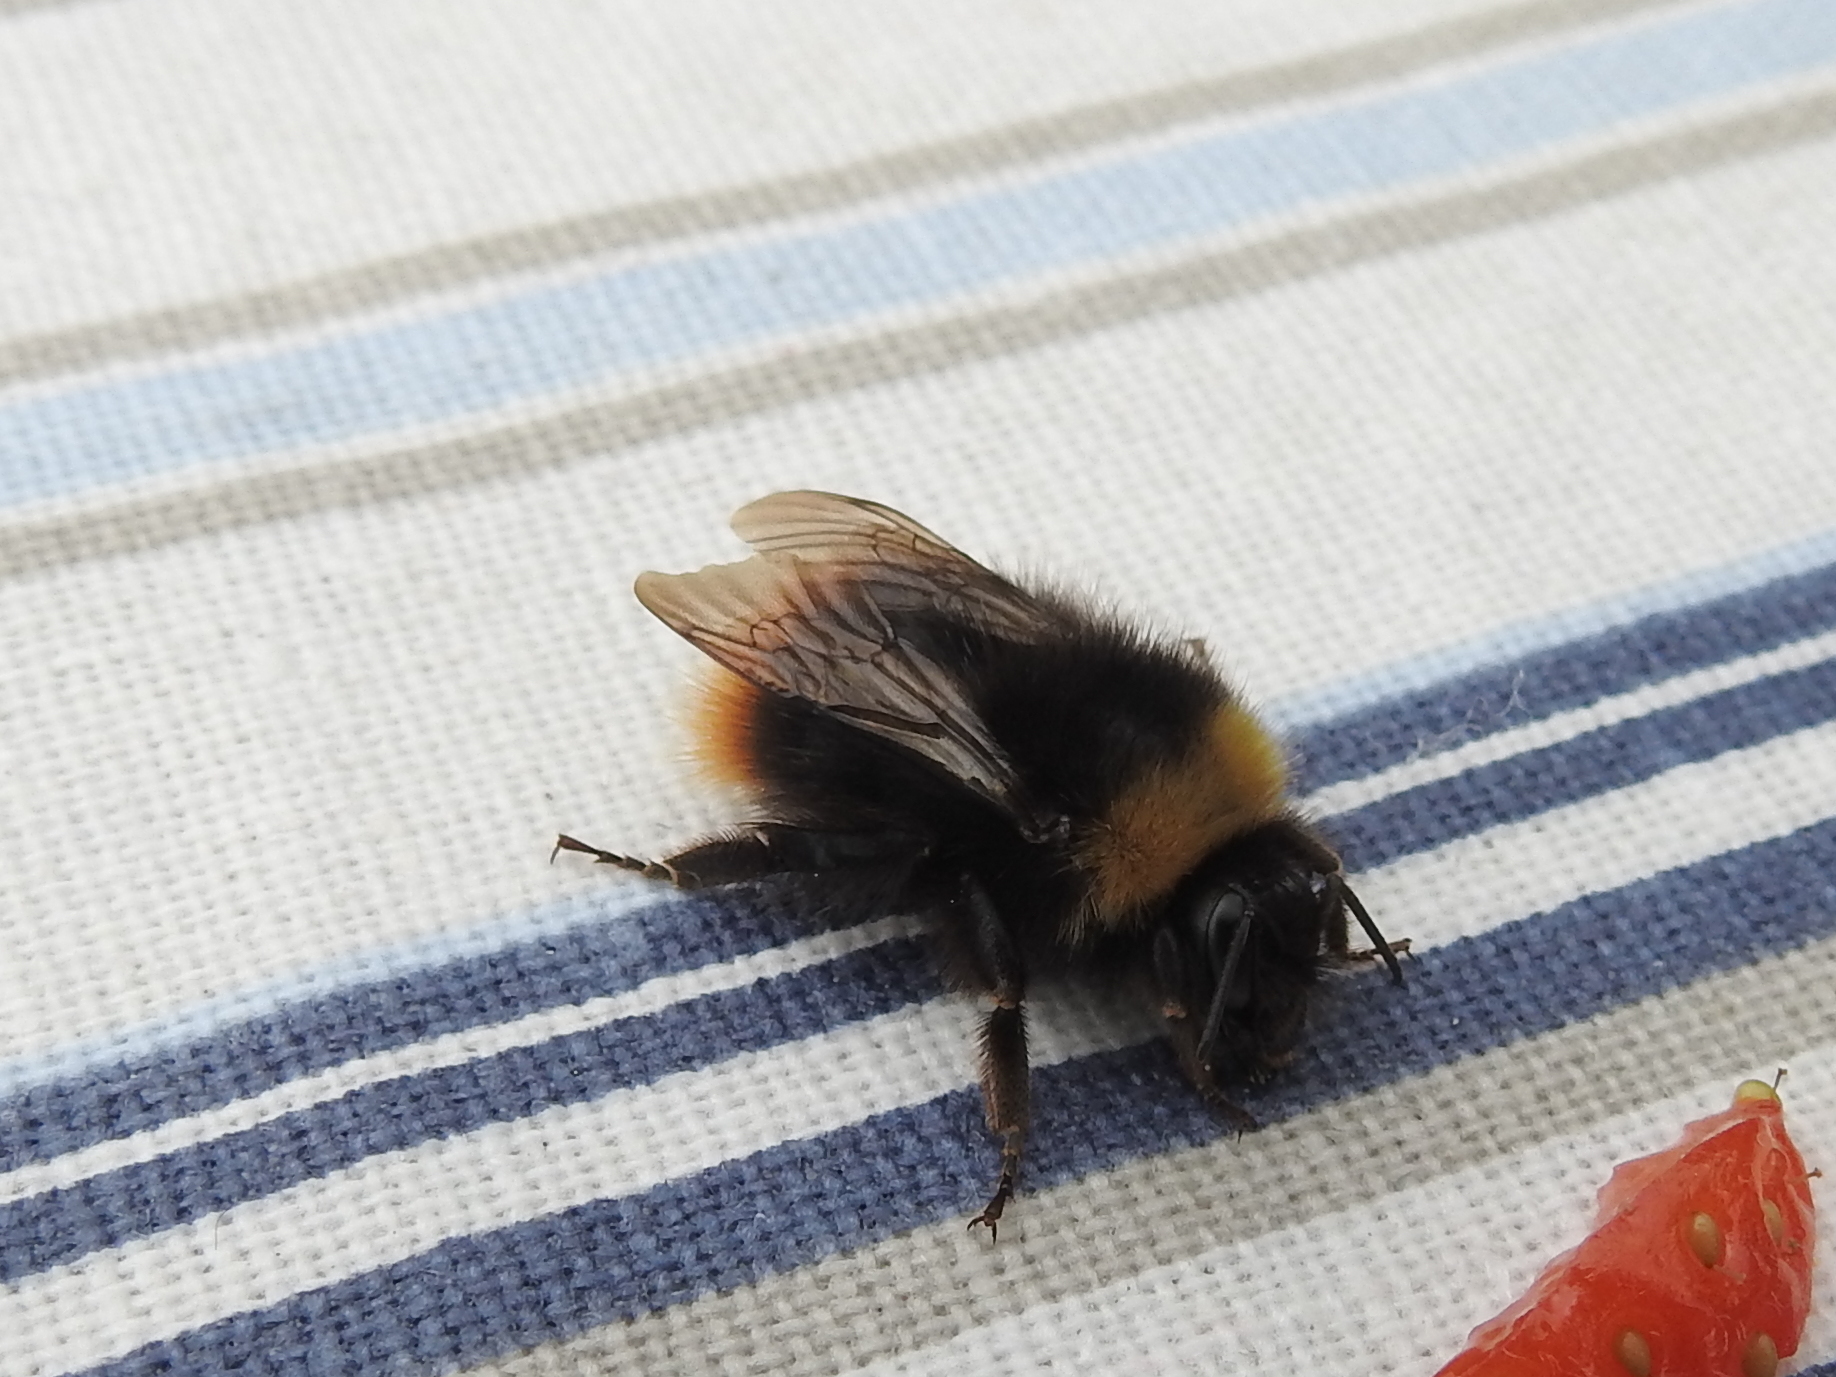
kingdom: Animalia
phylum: Arthropoda
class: Insecta
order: Hymenoptera
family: Apidae
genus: Bombus
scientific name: Bombus pratorum
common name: Early humble-bee
